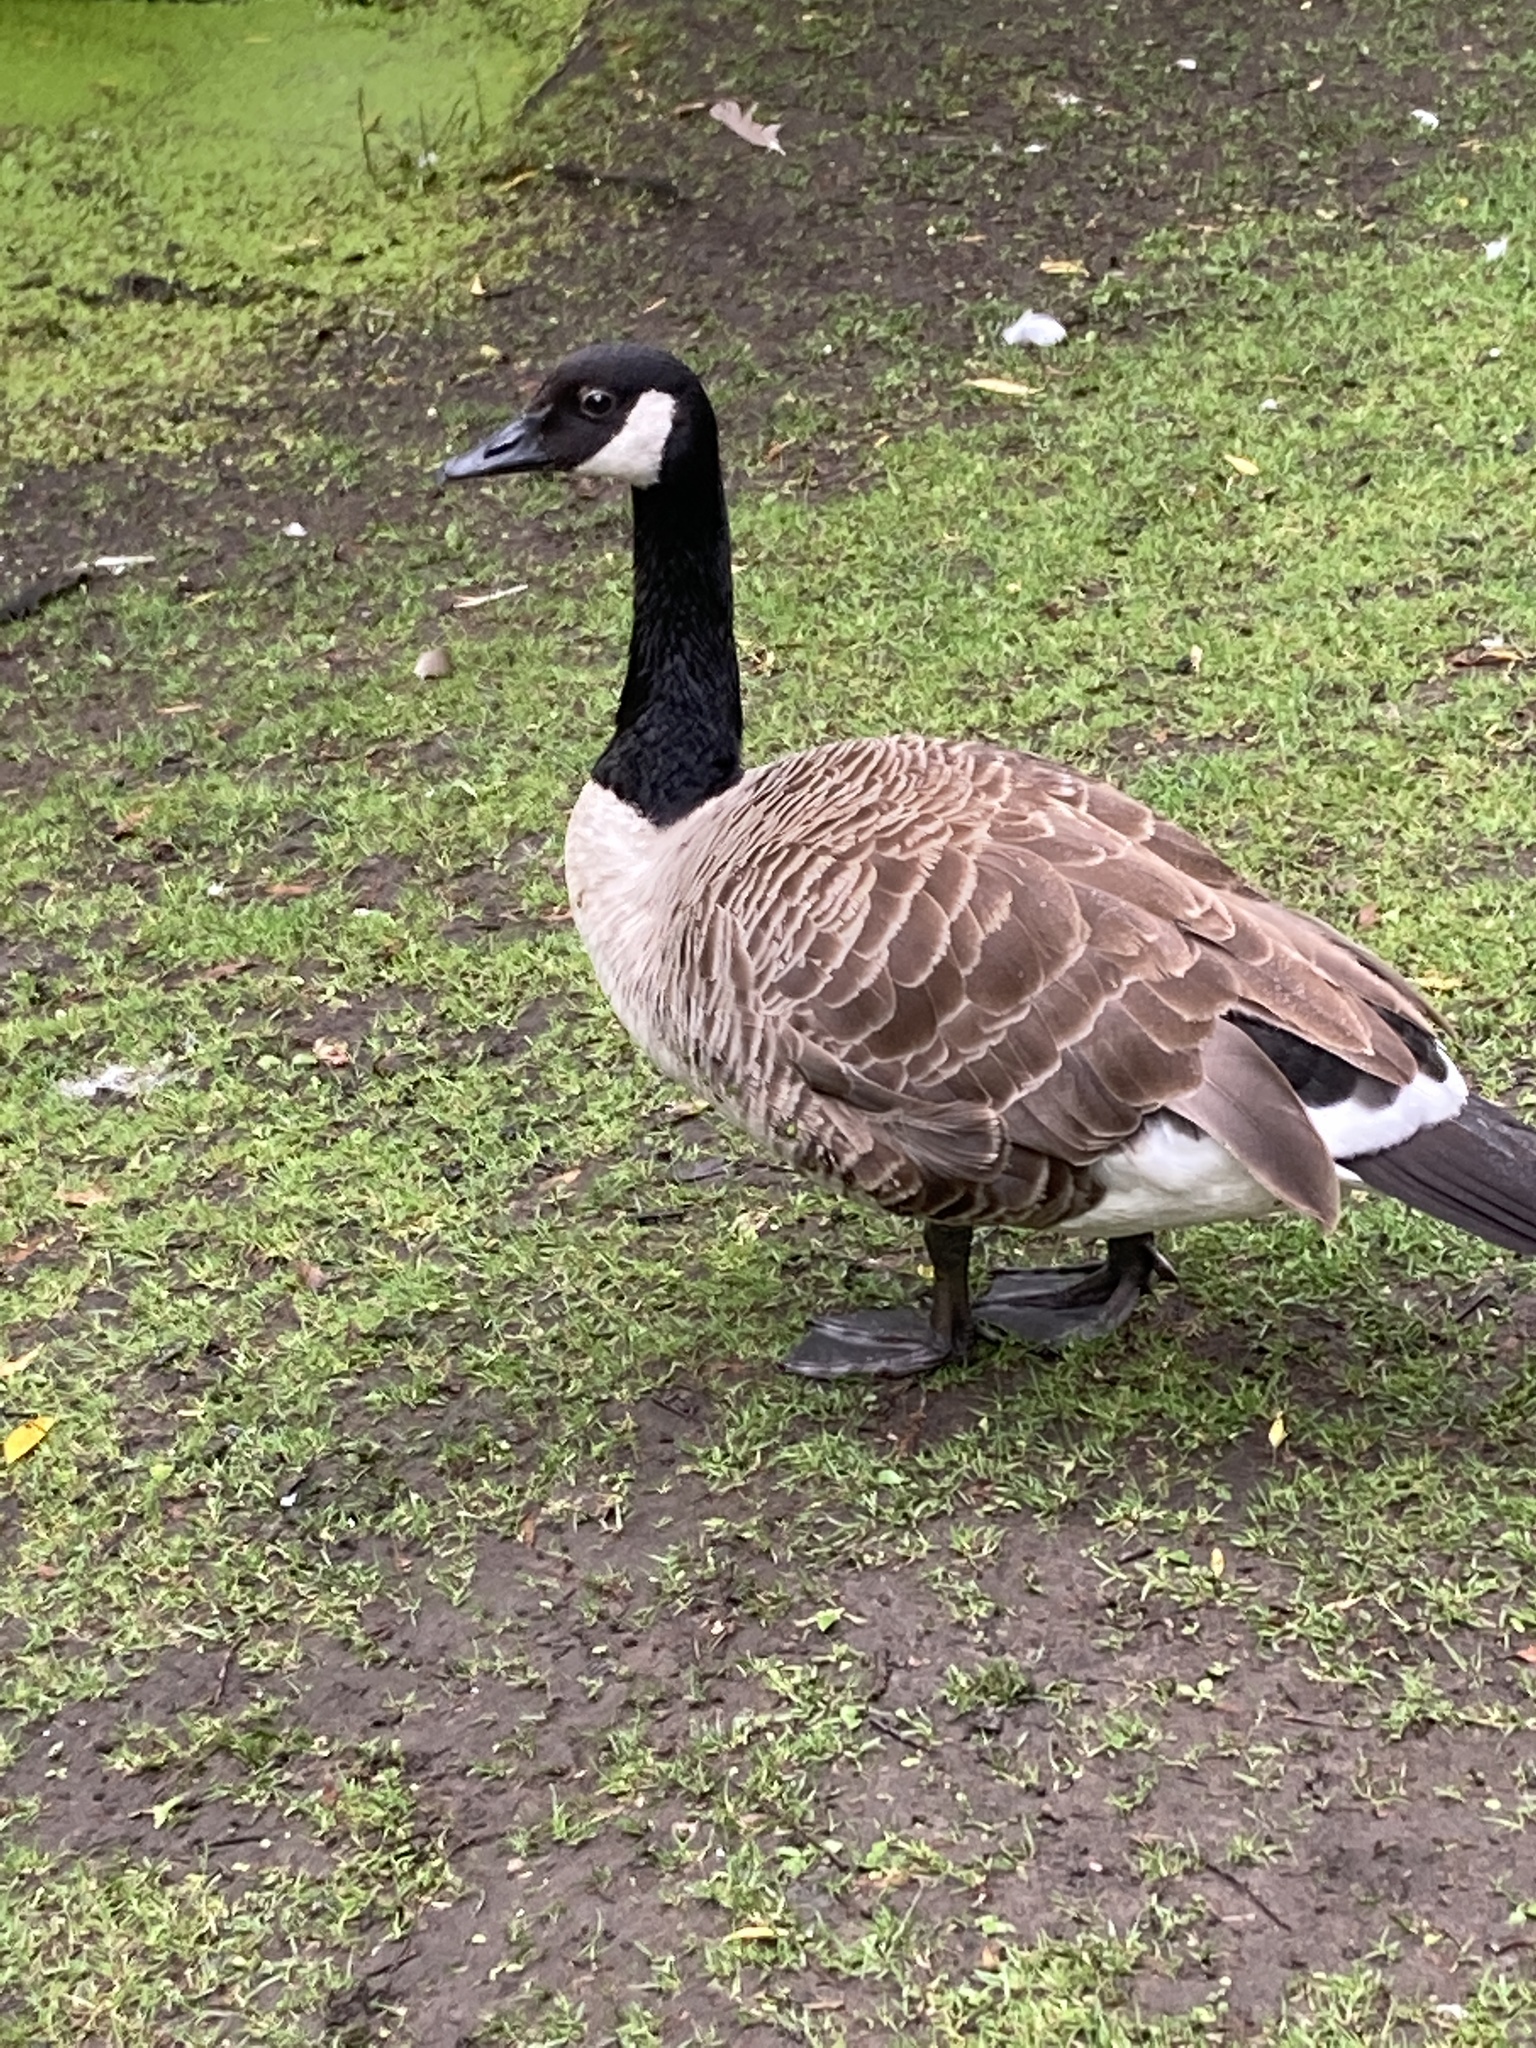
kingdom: Animalia
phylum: Chordata
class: Aves
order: Anseriformes
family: Anatidae
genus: Branta
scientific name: Branta canadensis
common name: Canada goose
